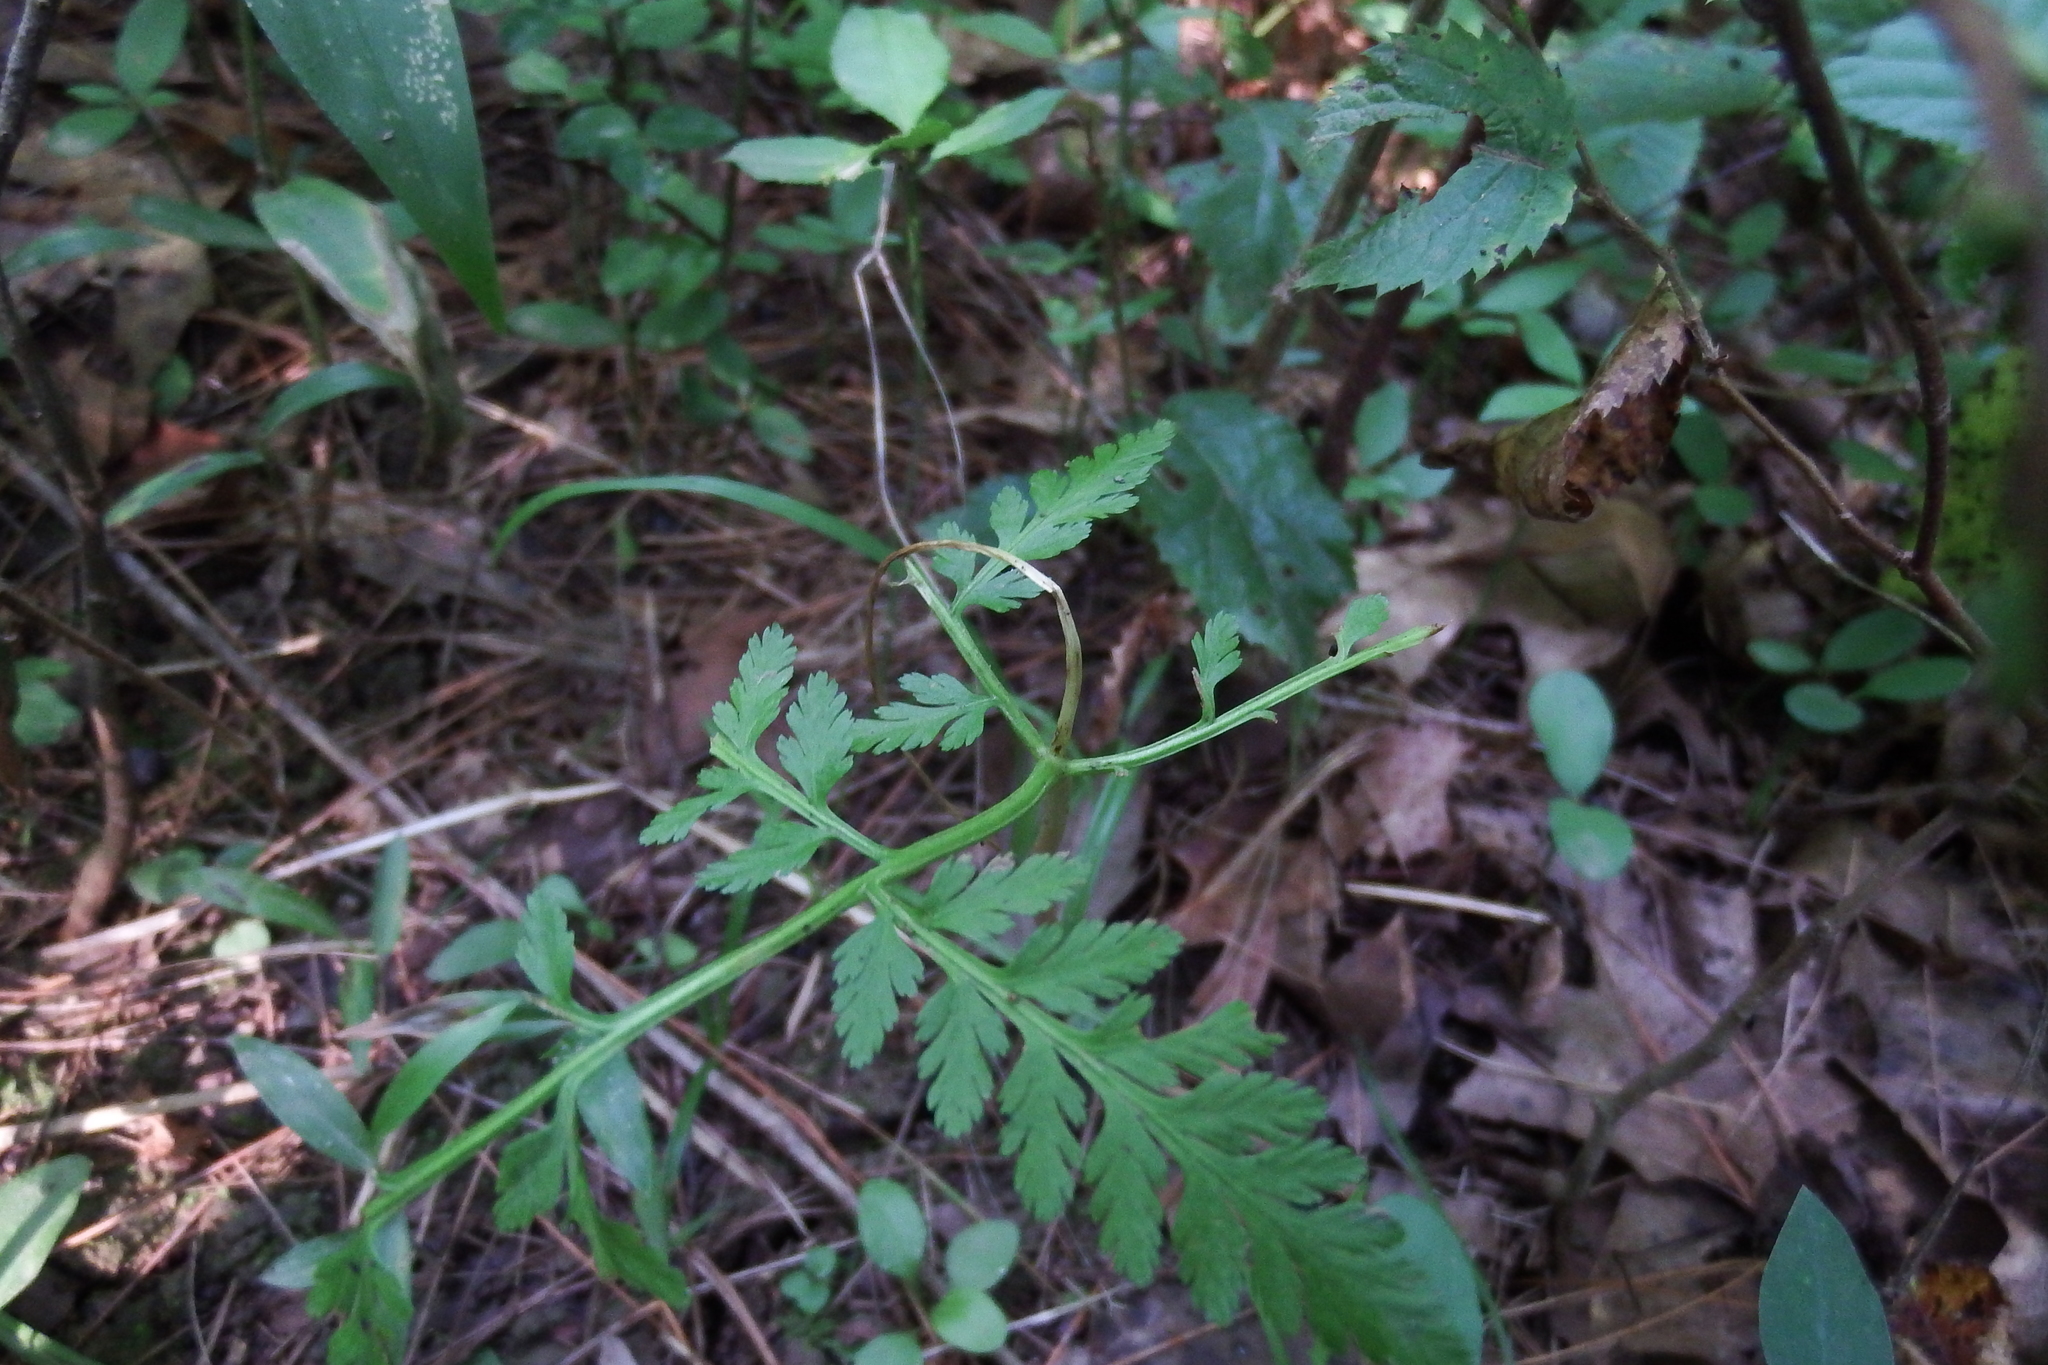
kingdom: Plantae
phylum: Tracheophyta
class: Polypodiopsida
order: Ophioglossales
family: Ophioglossaceae
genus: Botrypus
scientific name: Botrypus virginianus
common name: Common grapefern
